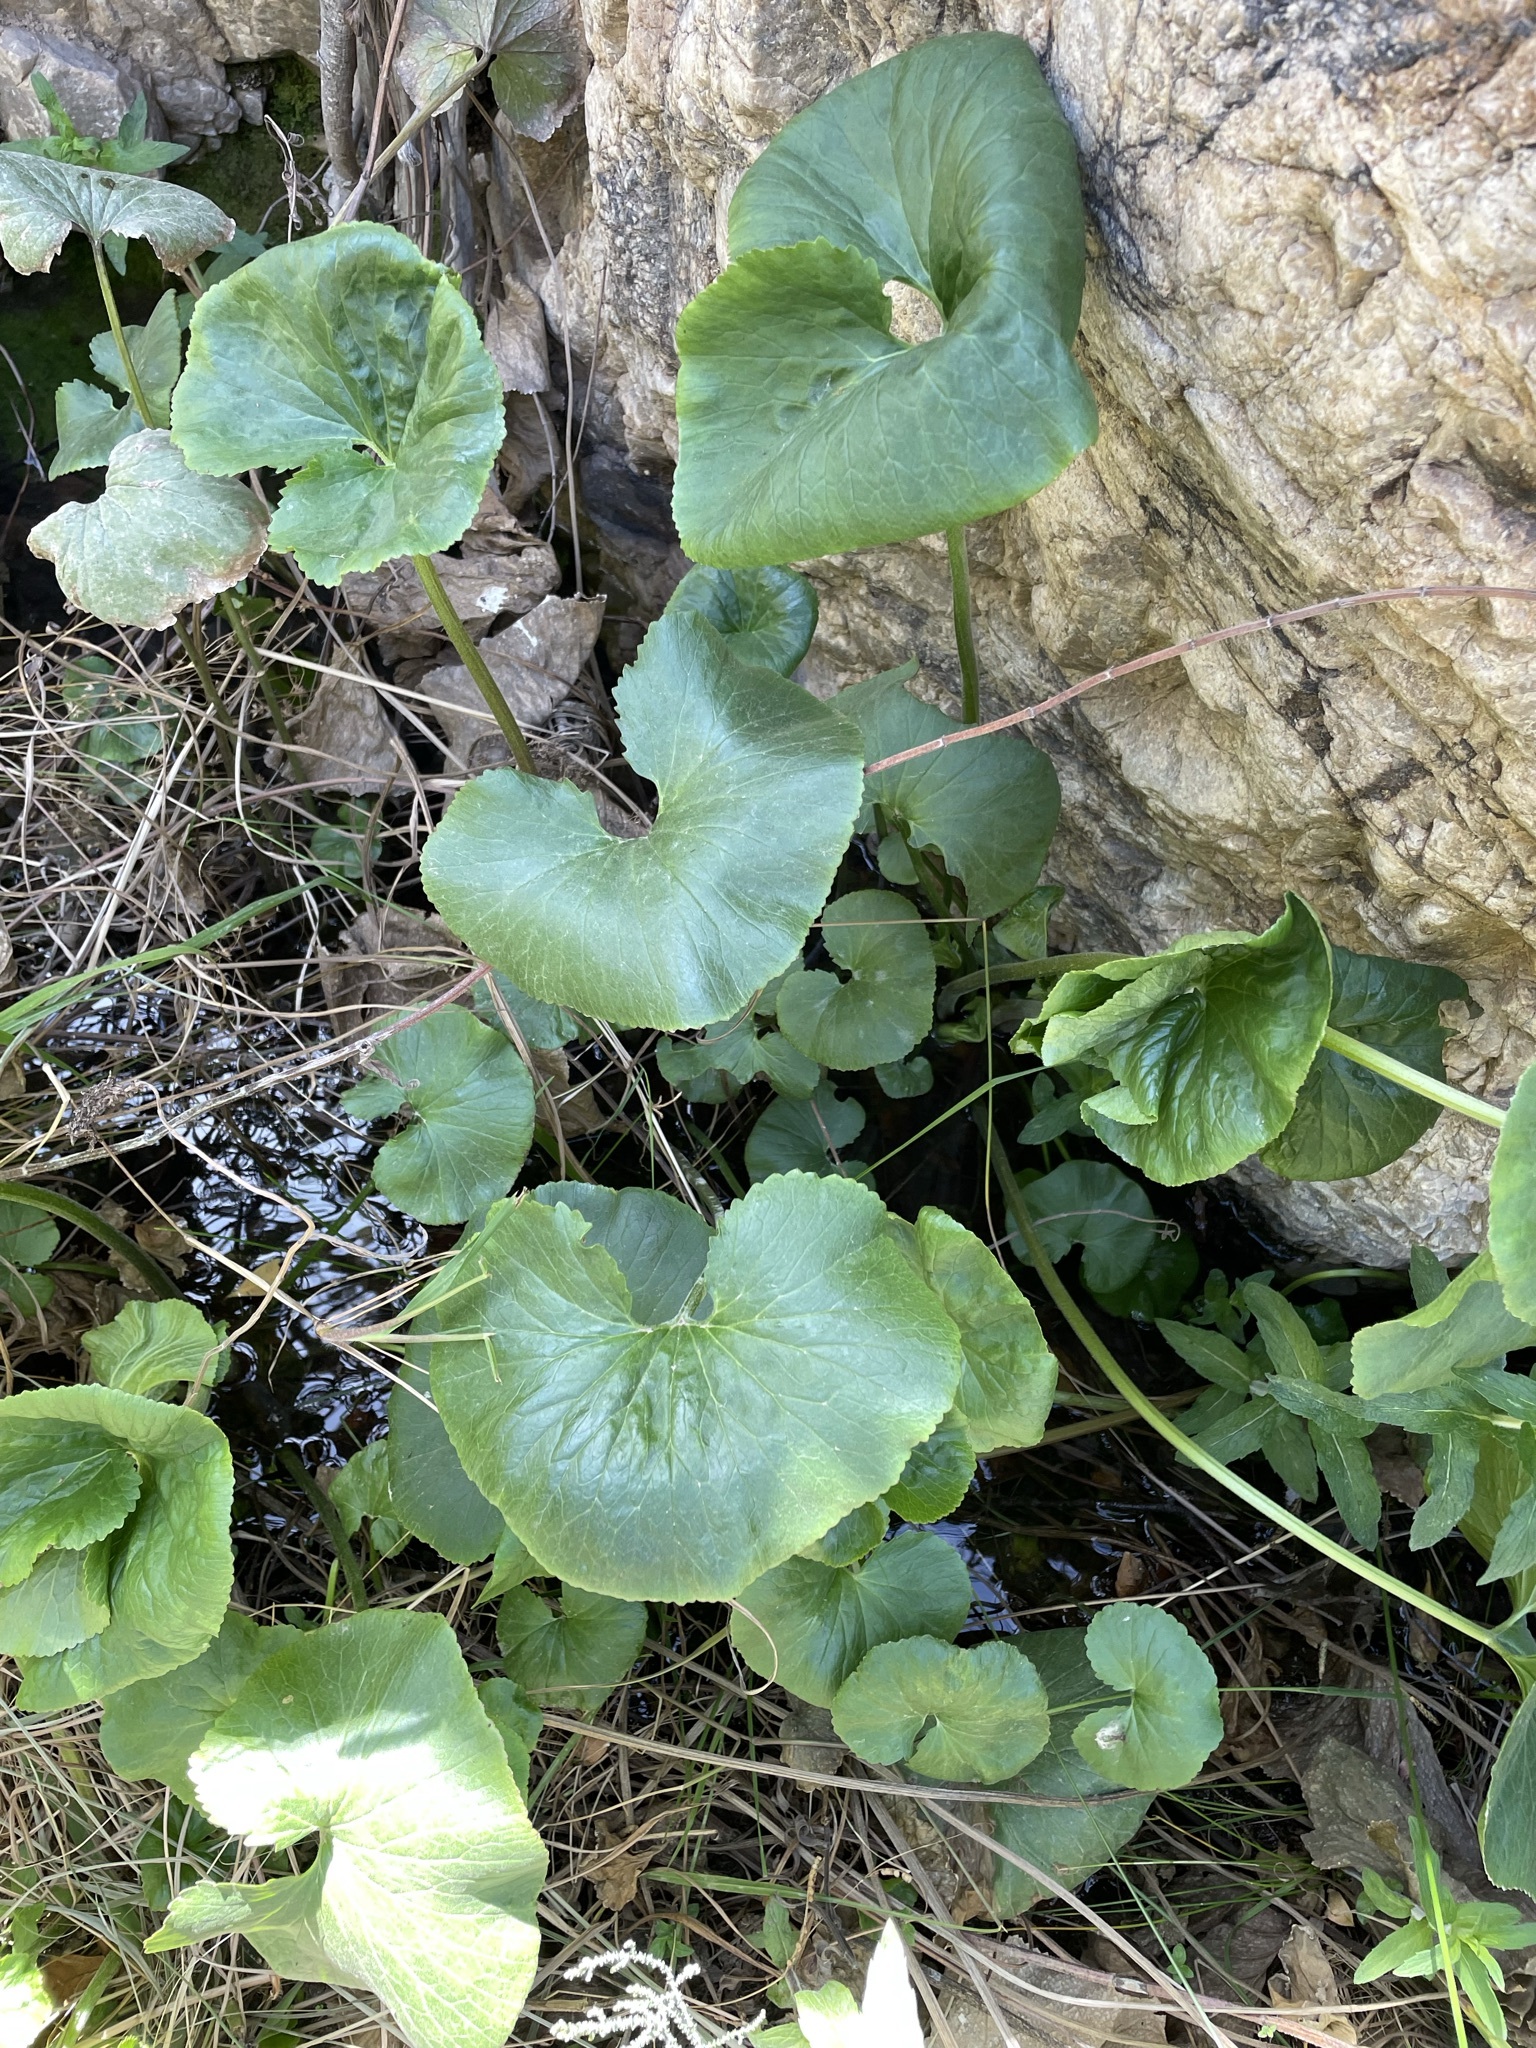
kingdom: Plantae
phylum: Tracheophyta
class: Magnoliopsida
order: Gunnerales
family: Gunneraceae
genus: Gunnera
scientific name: Gunnera perpensa
